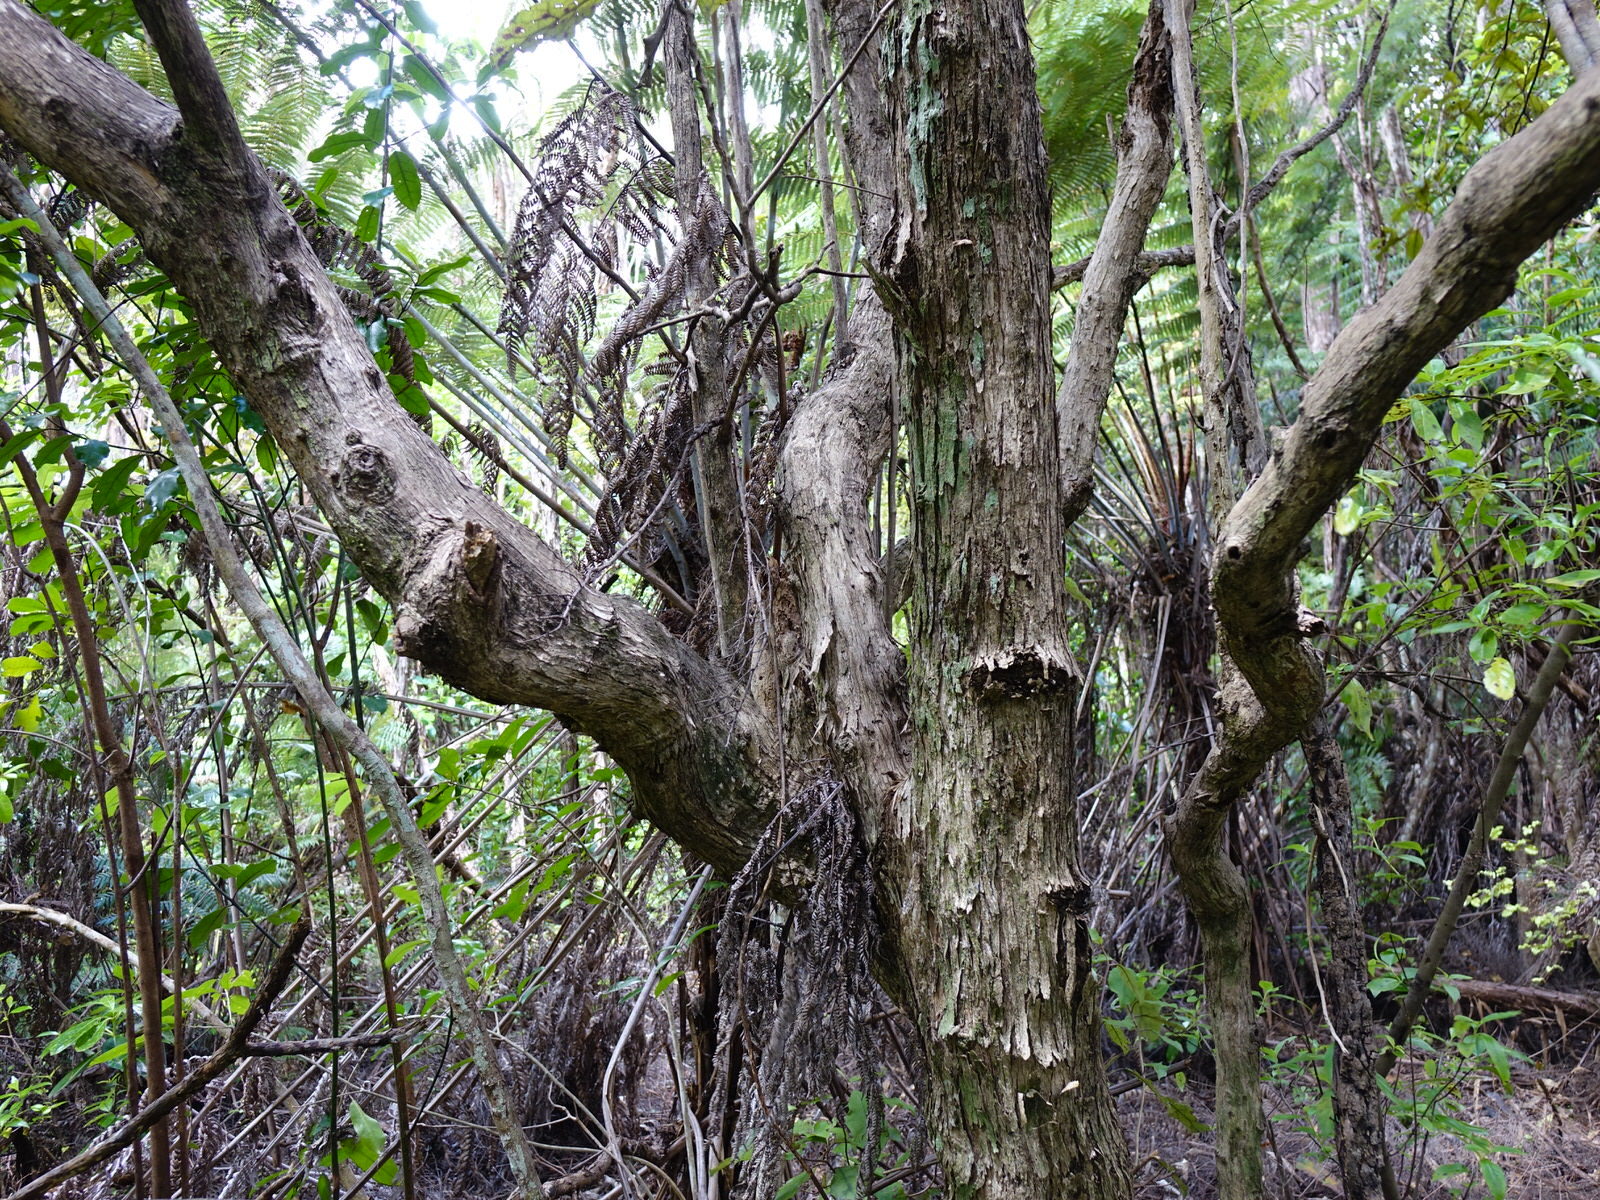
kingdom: Plantae
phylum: Tracheophyta
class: Magnoliopsida
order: Asterales
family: Asteraceae
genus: Olearia
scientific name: Olearia rani
